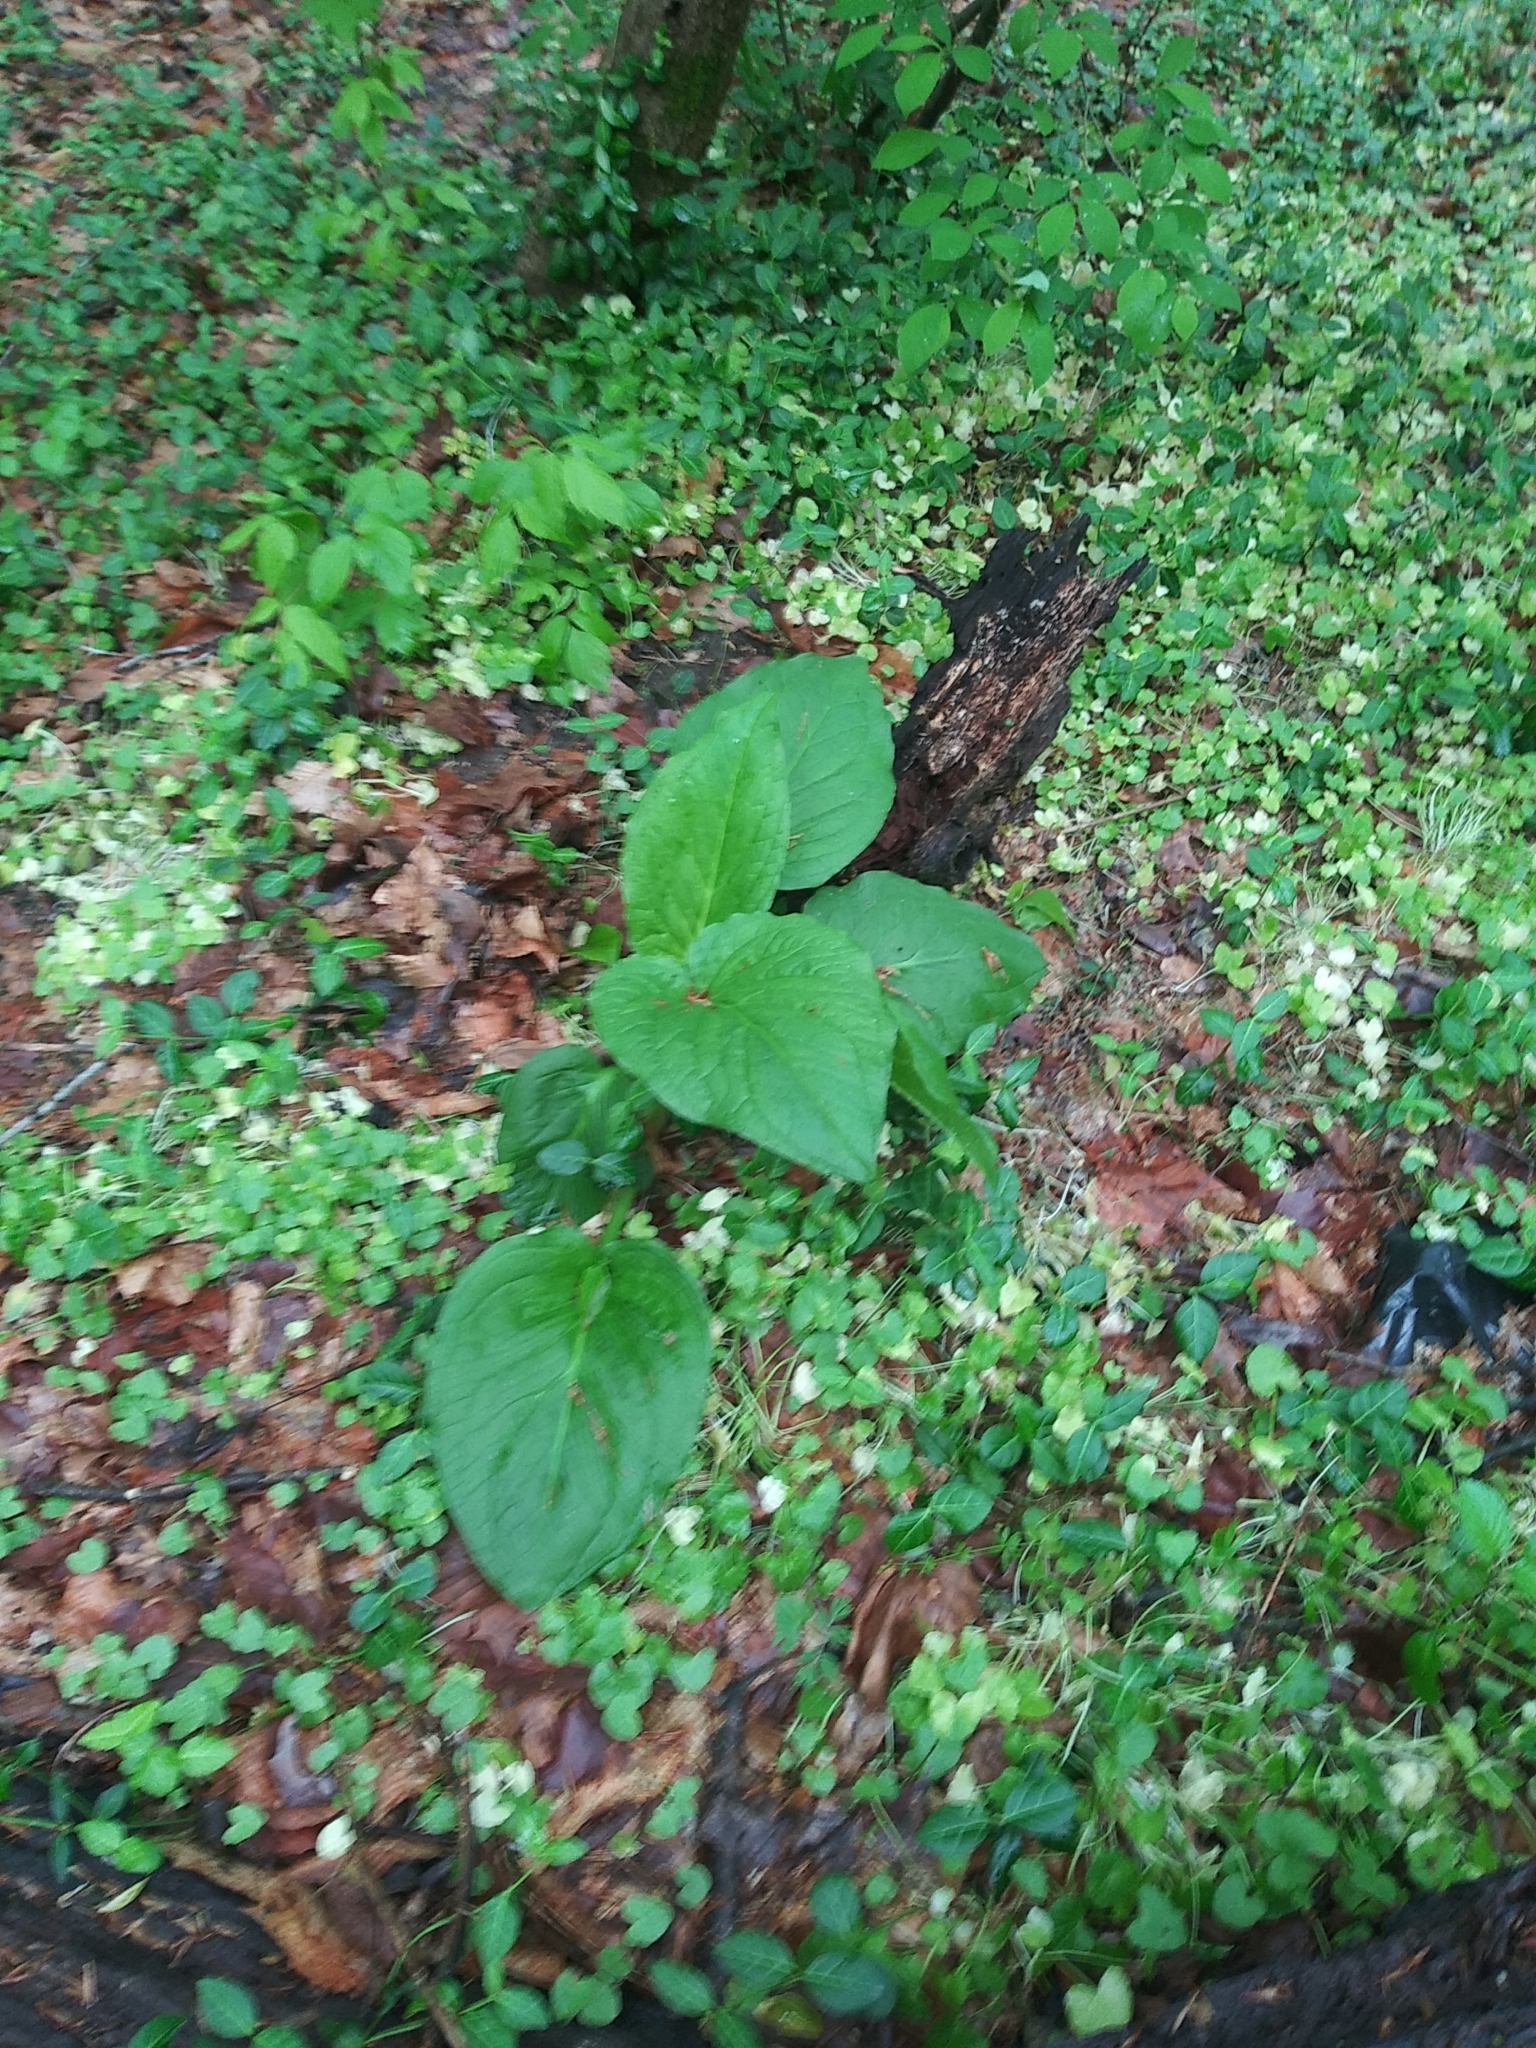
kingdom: Plantae
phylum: Tracheophyta
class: Liliopsida
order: Alismatales
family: Araceae
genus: Symplocarpus
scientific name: Symplocarpus foetidus
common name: Eastern skunk cabbage
